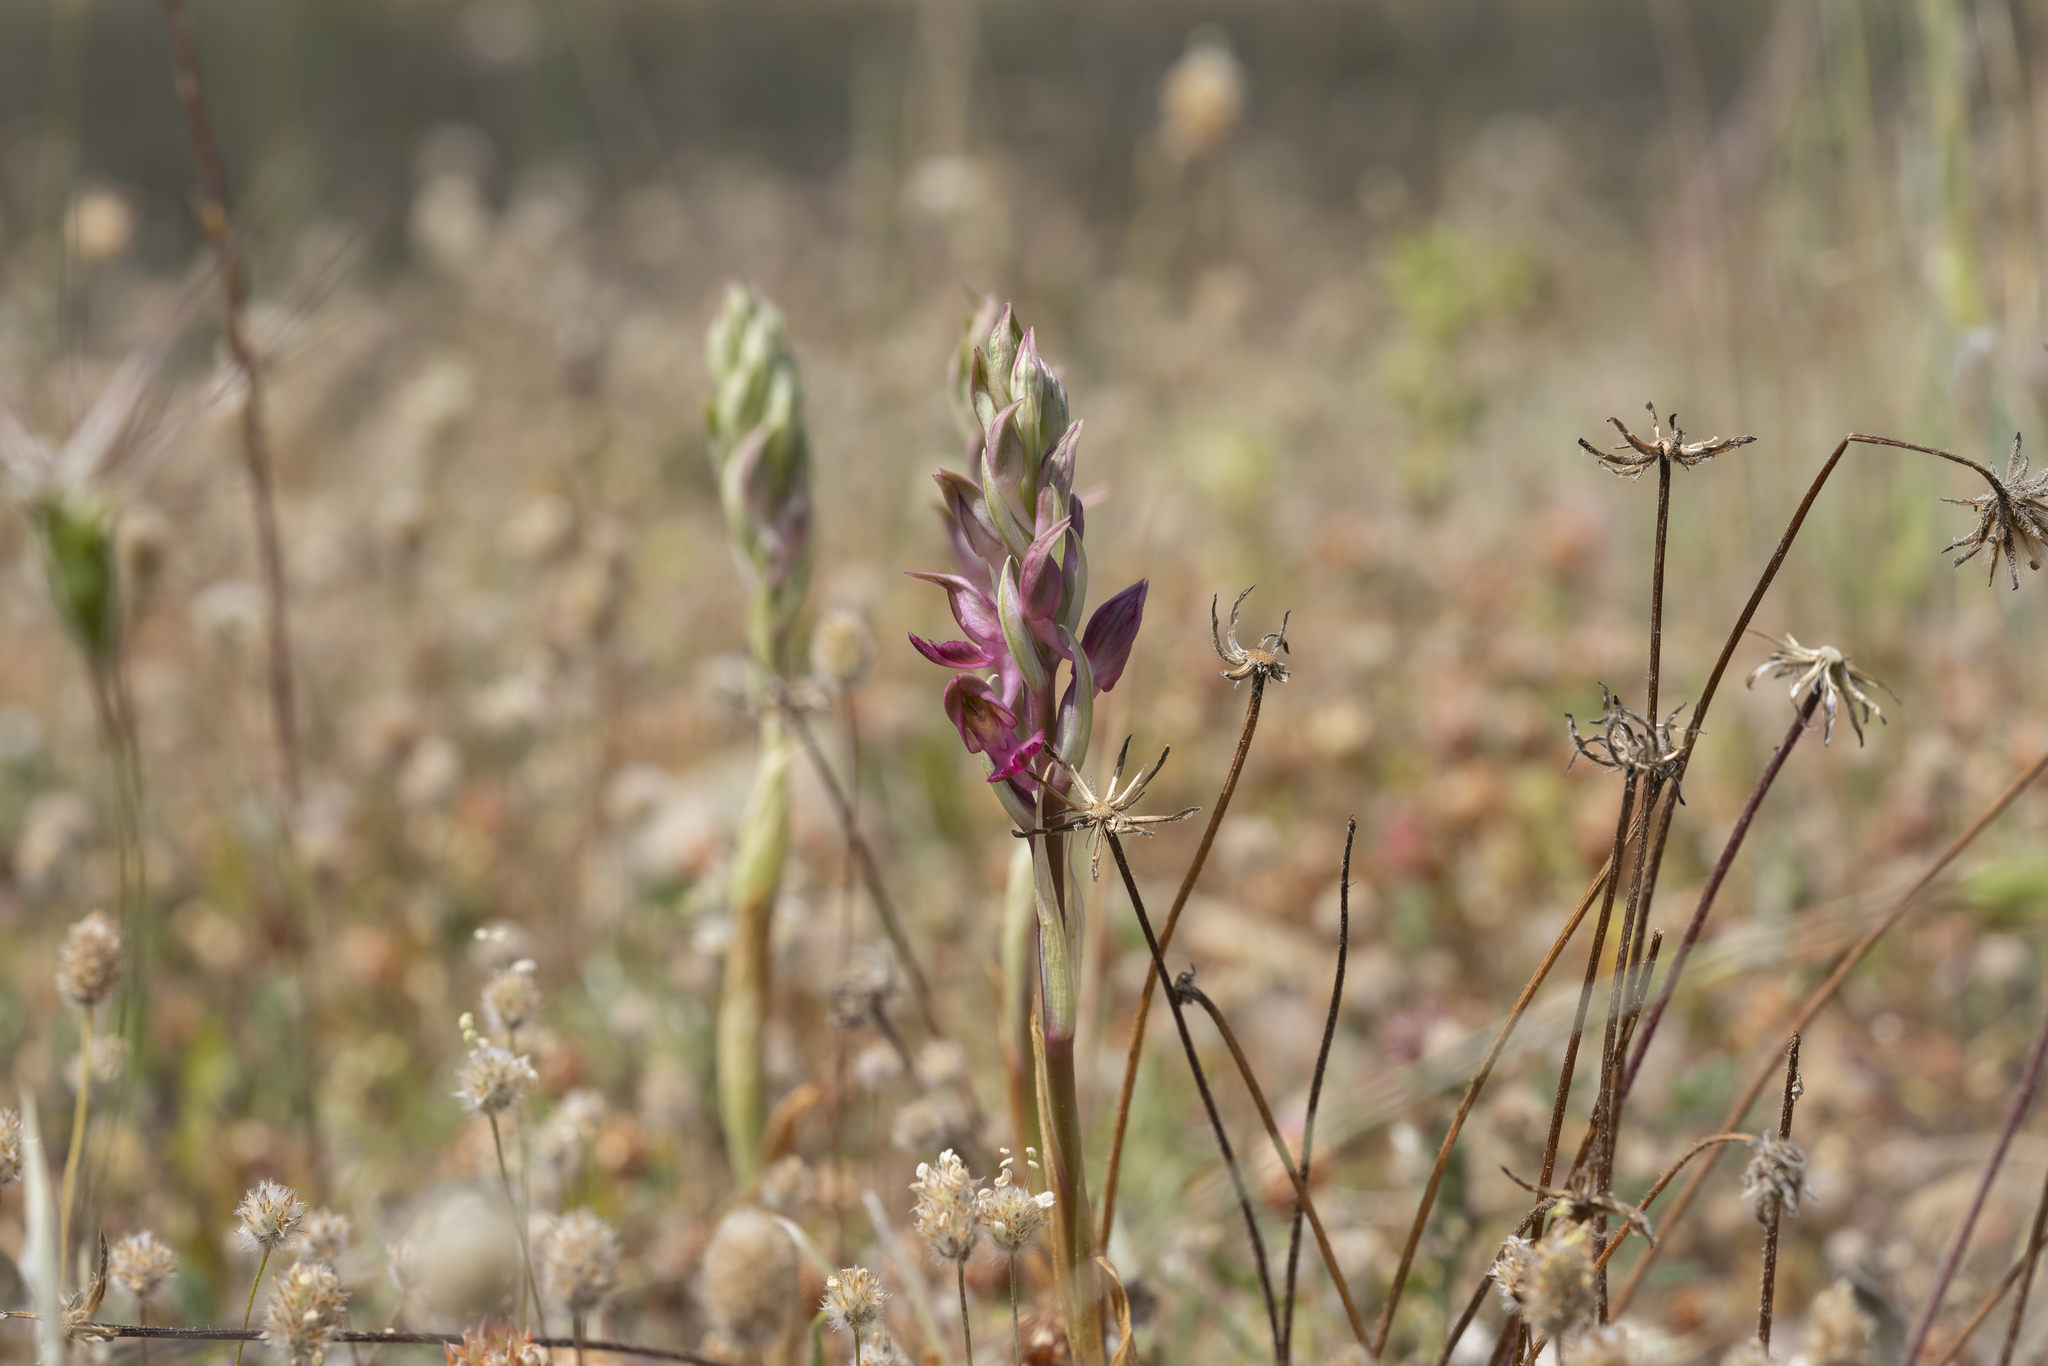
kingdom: Plantae
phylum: Tracheophyta
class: Liliopsida
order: Asparagales
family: Orchidaceae
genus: Anacamptis
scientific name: Anacamptis sancta
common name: Holy orchid
